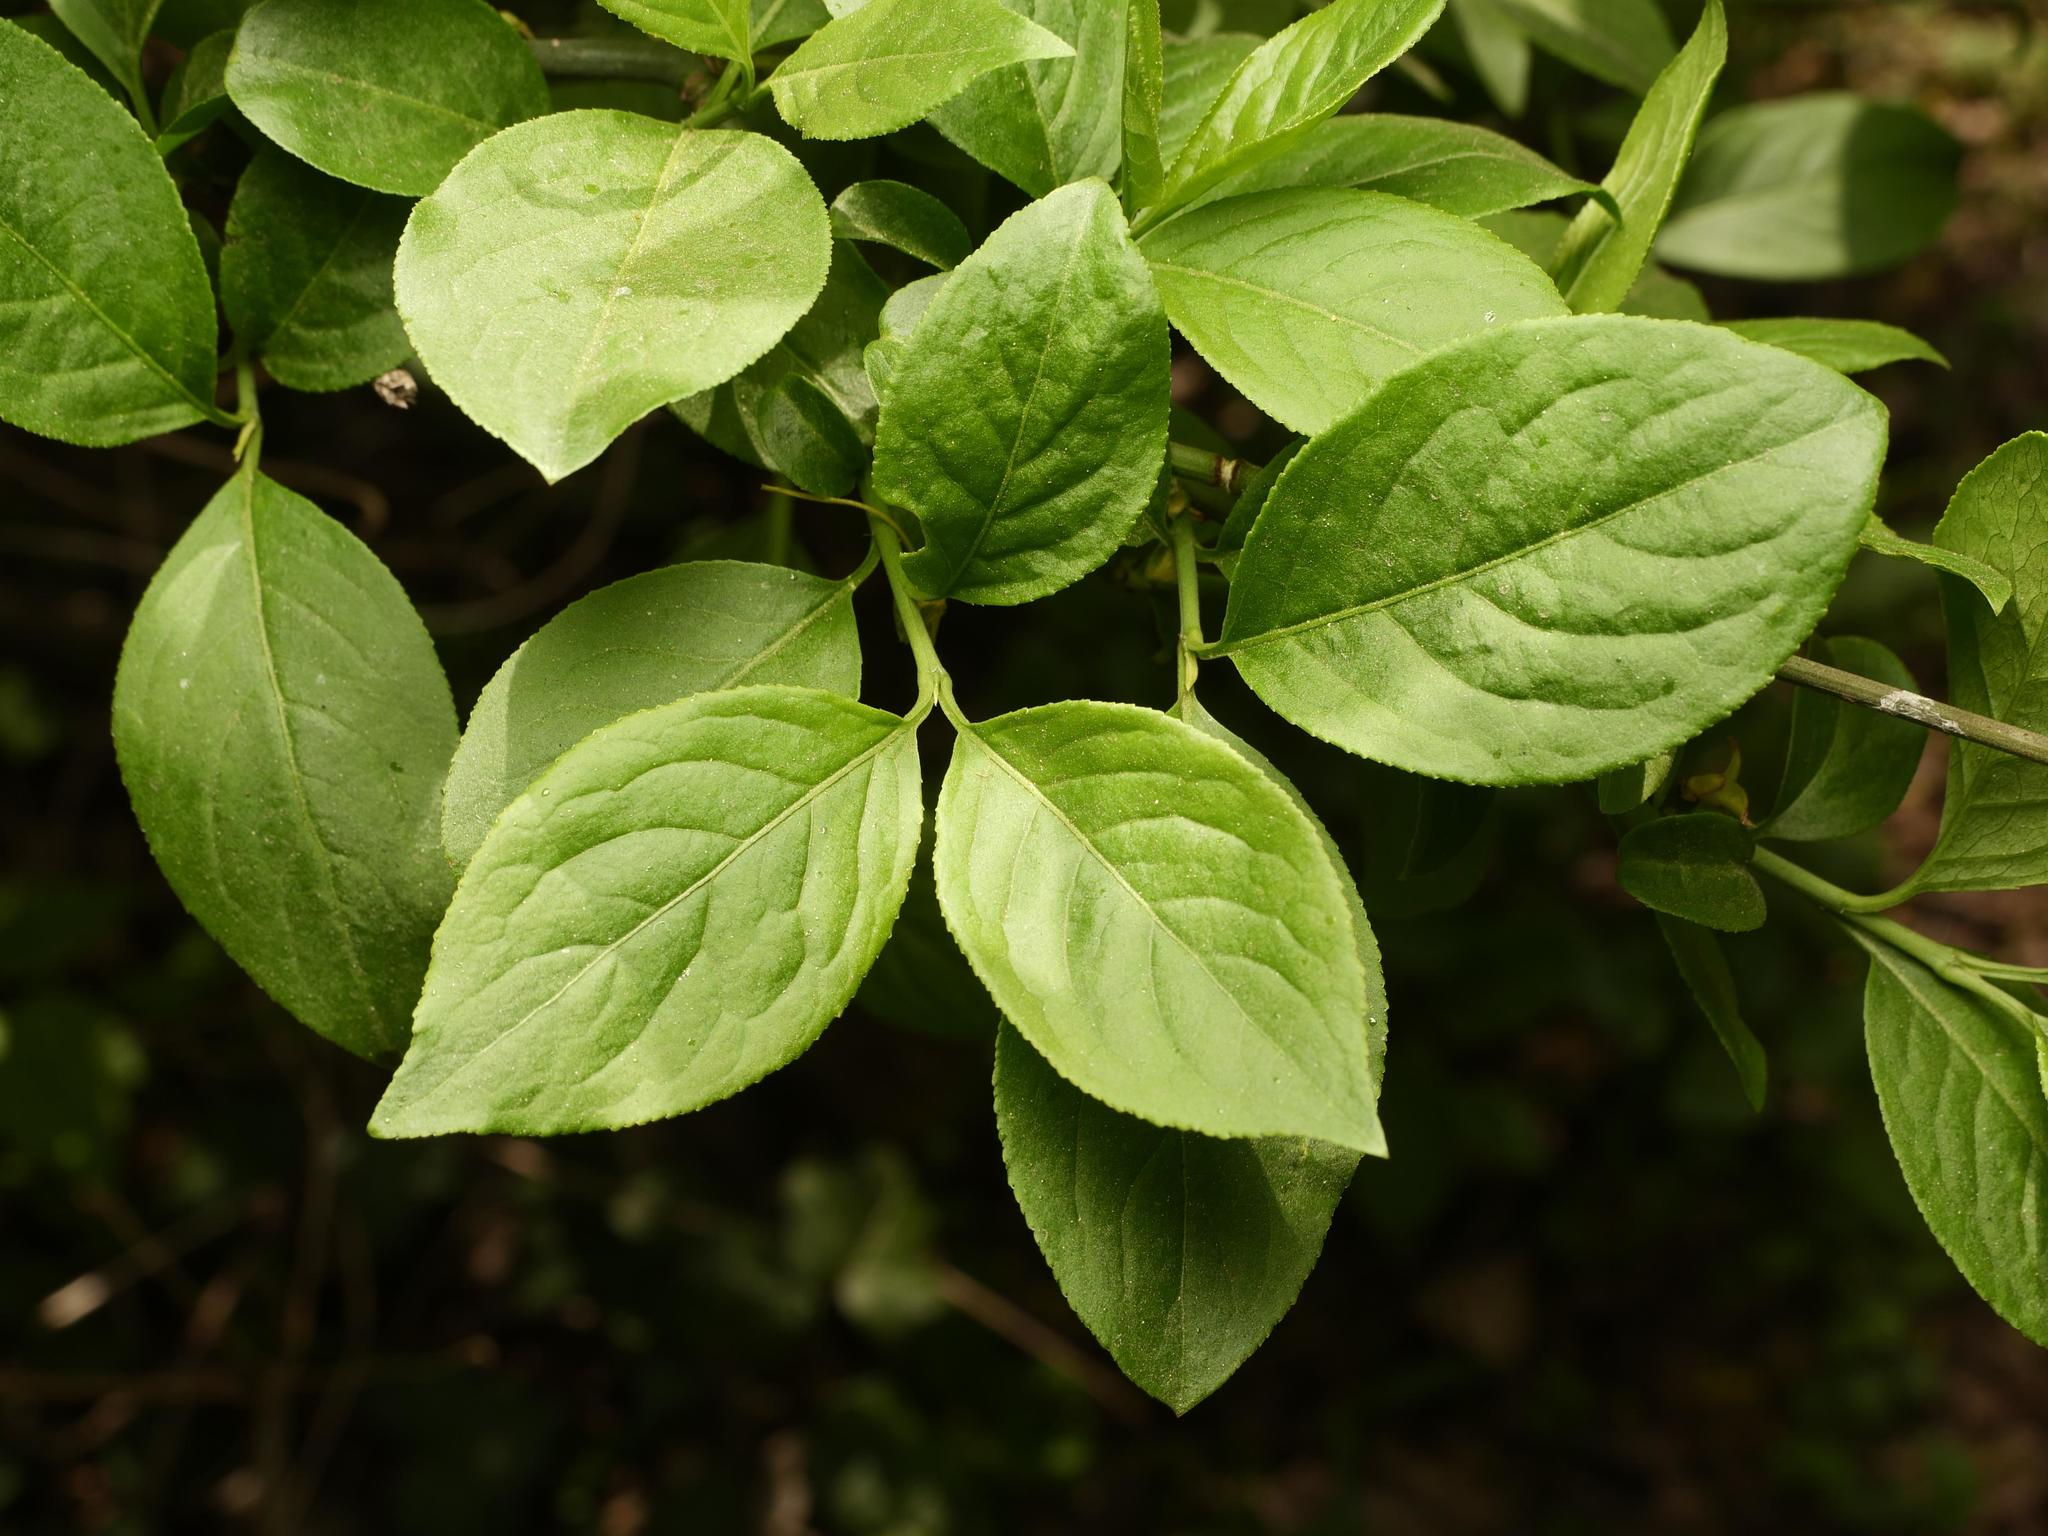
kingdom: Plantae
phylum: Tracheophyta
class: Magnoliopsida
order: Celastrales
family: Celastraceae
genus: Euonymus
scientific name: Euonymus europaeus
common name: Spindle
